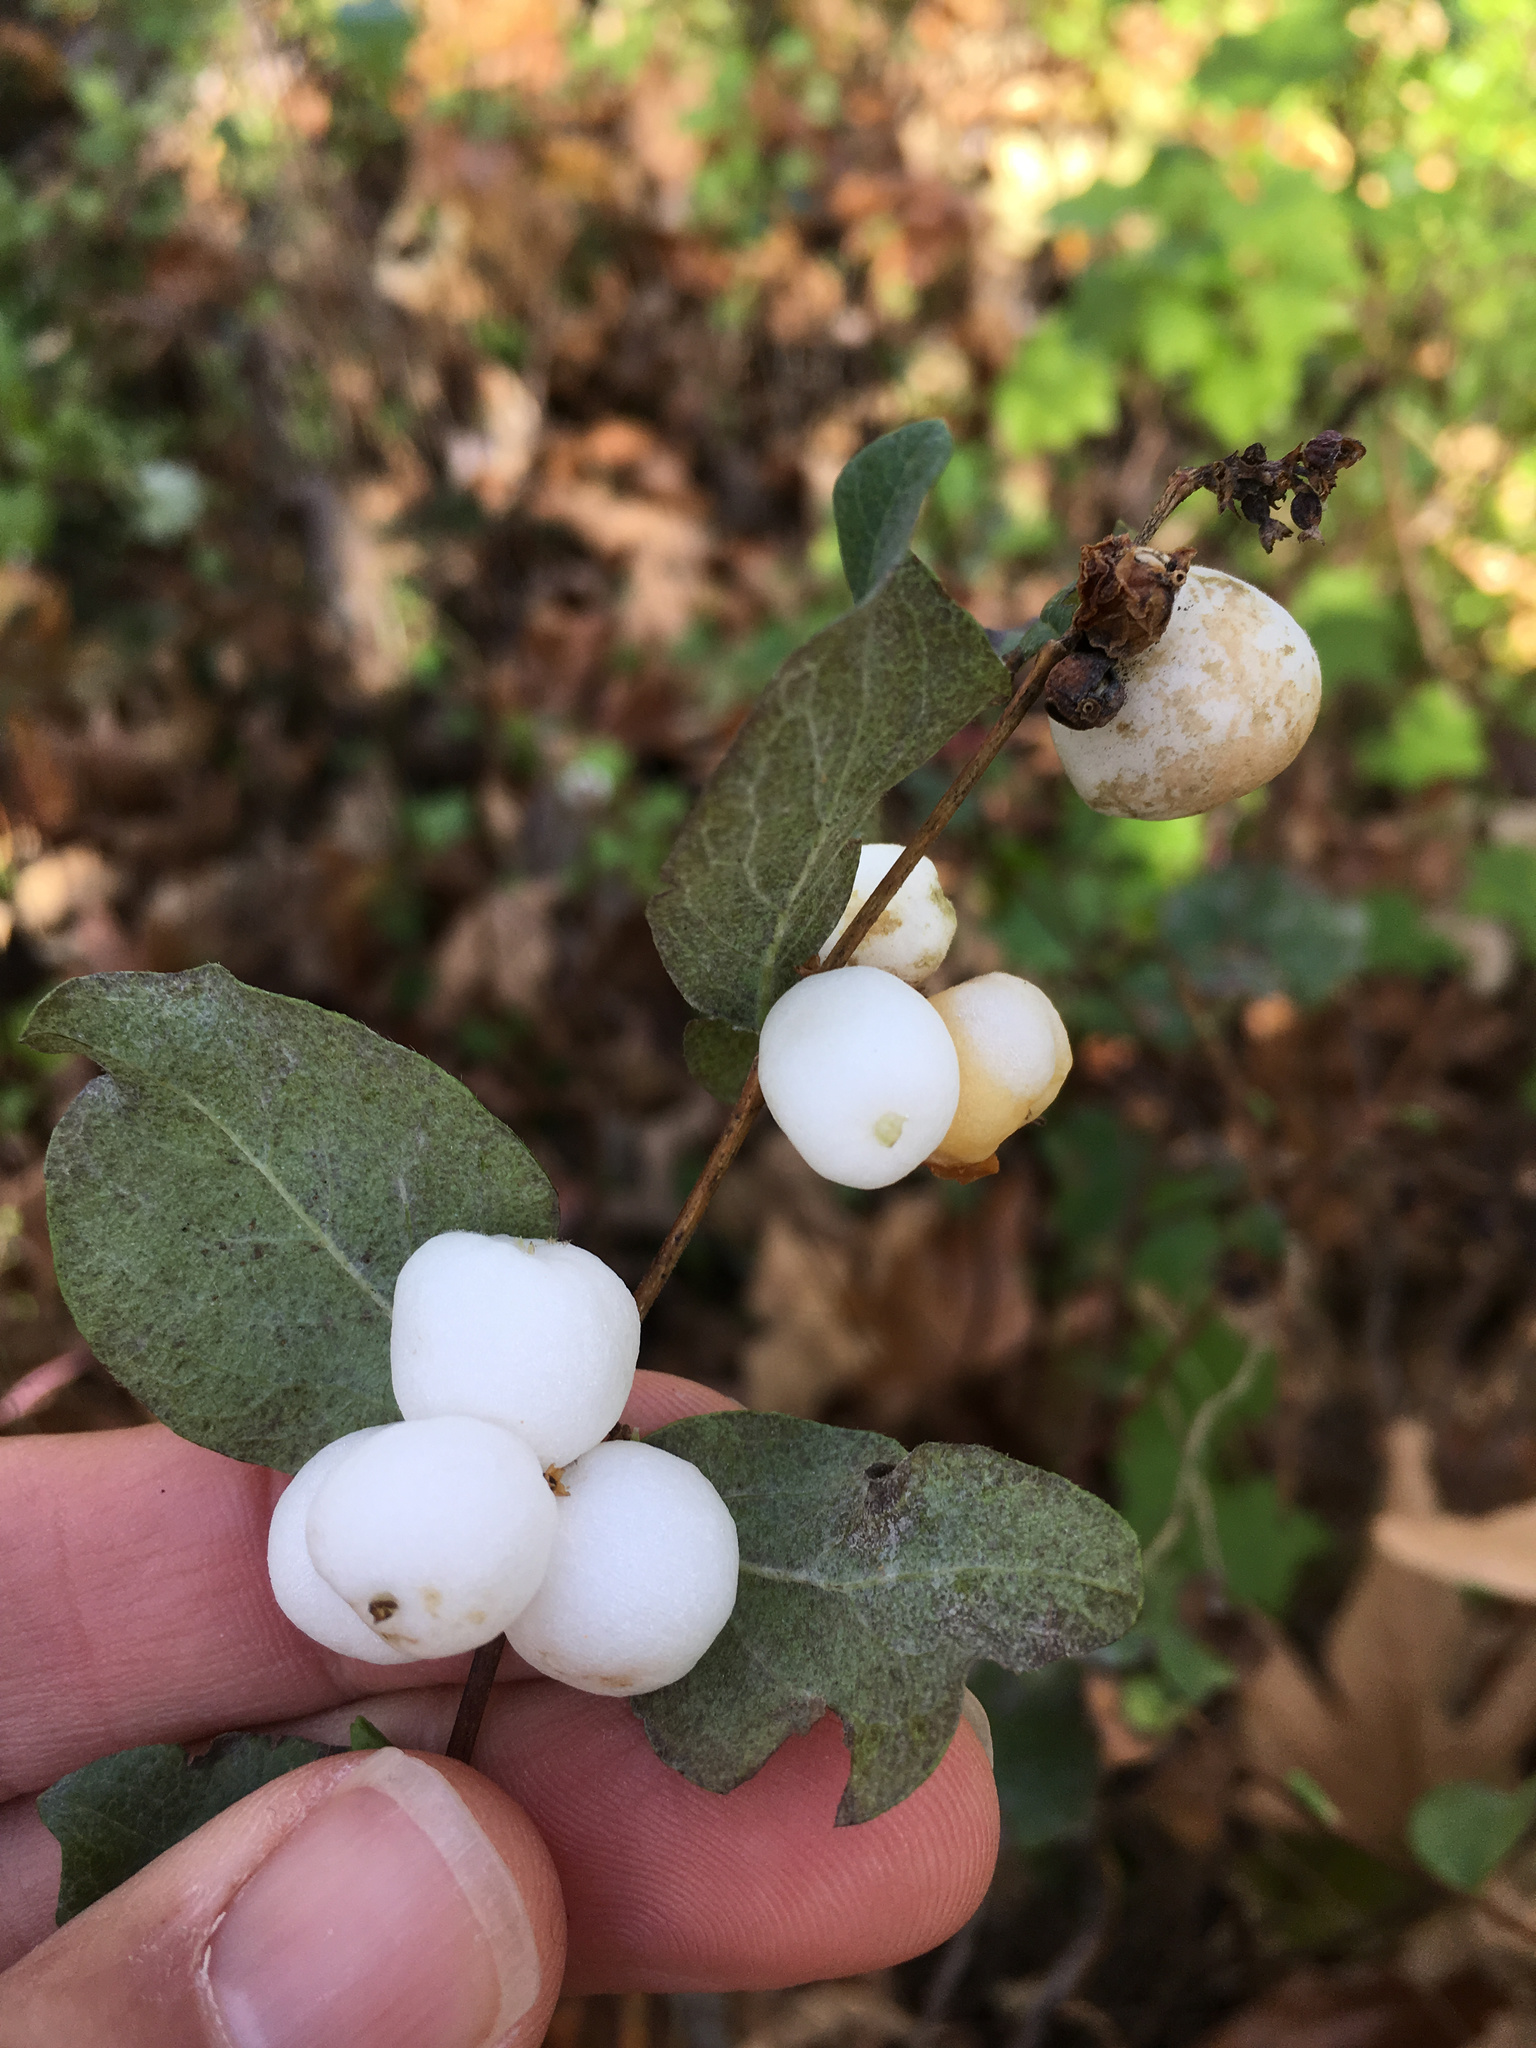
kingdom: Plantae
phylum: Tracheophyta
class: Magnoliopsida
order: Dipsacales
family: Caprifoliaceae
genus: Symphoricarpos
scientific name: Symphoricarpos albus
